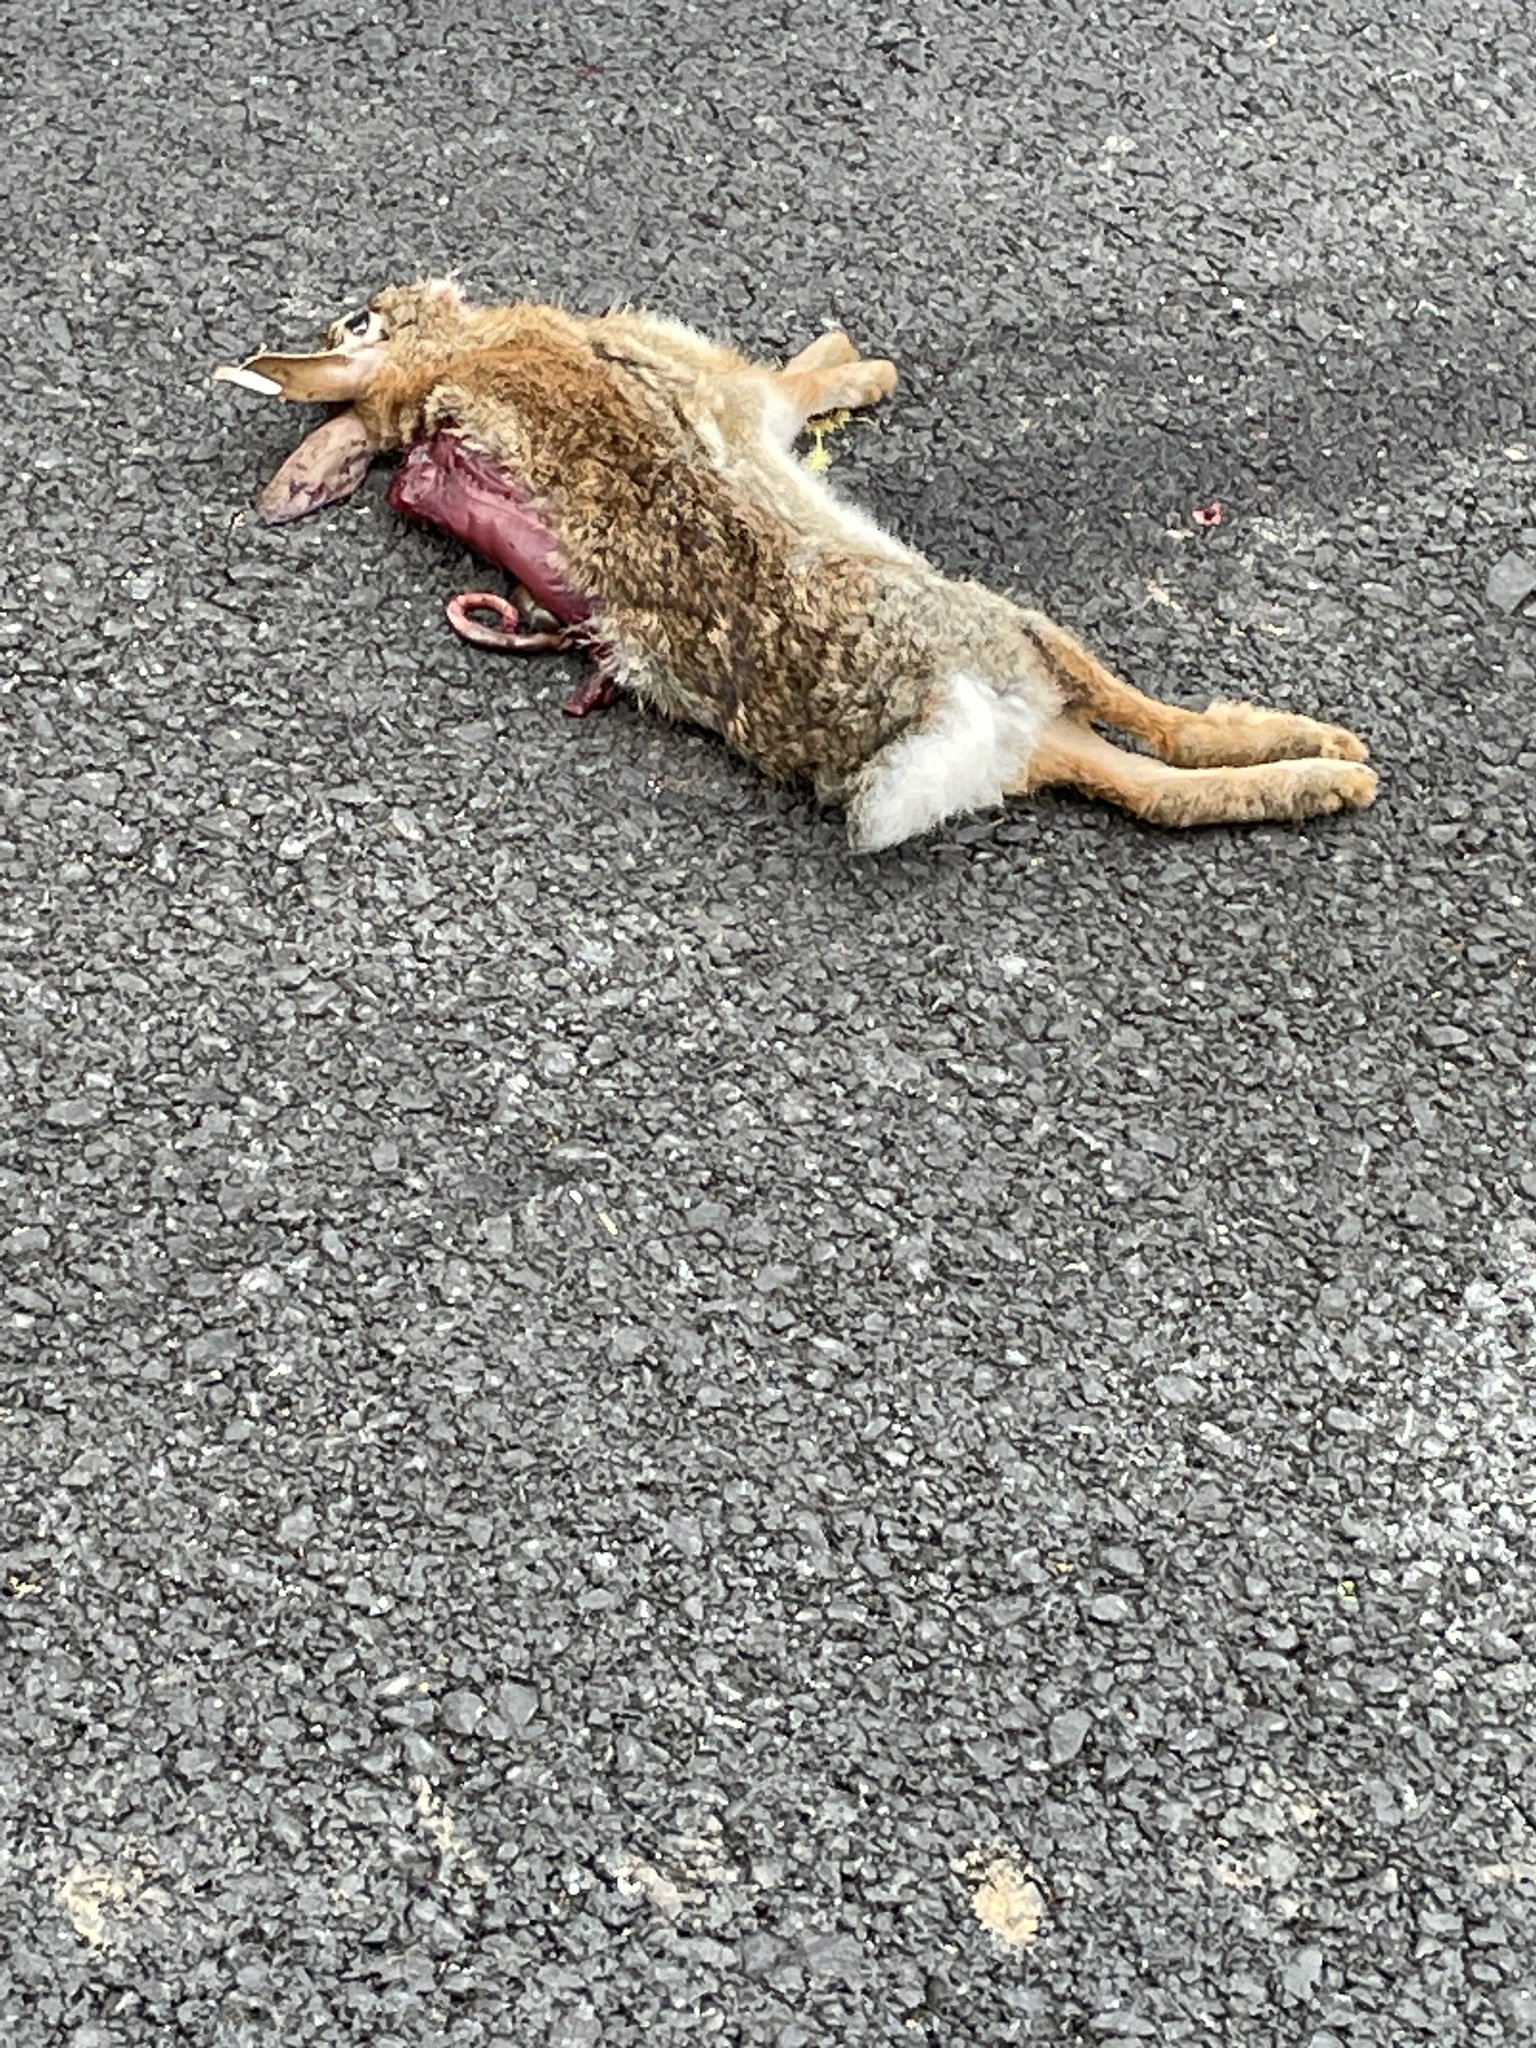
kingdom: Animalia
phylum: Chordata
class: Mammalia
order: Lagomorpha
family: Leporidae
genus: Sylvilagus
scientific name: Sylvilagus floridanus
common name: Eastern cottontail
